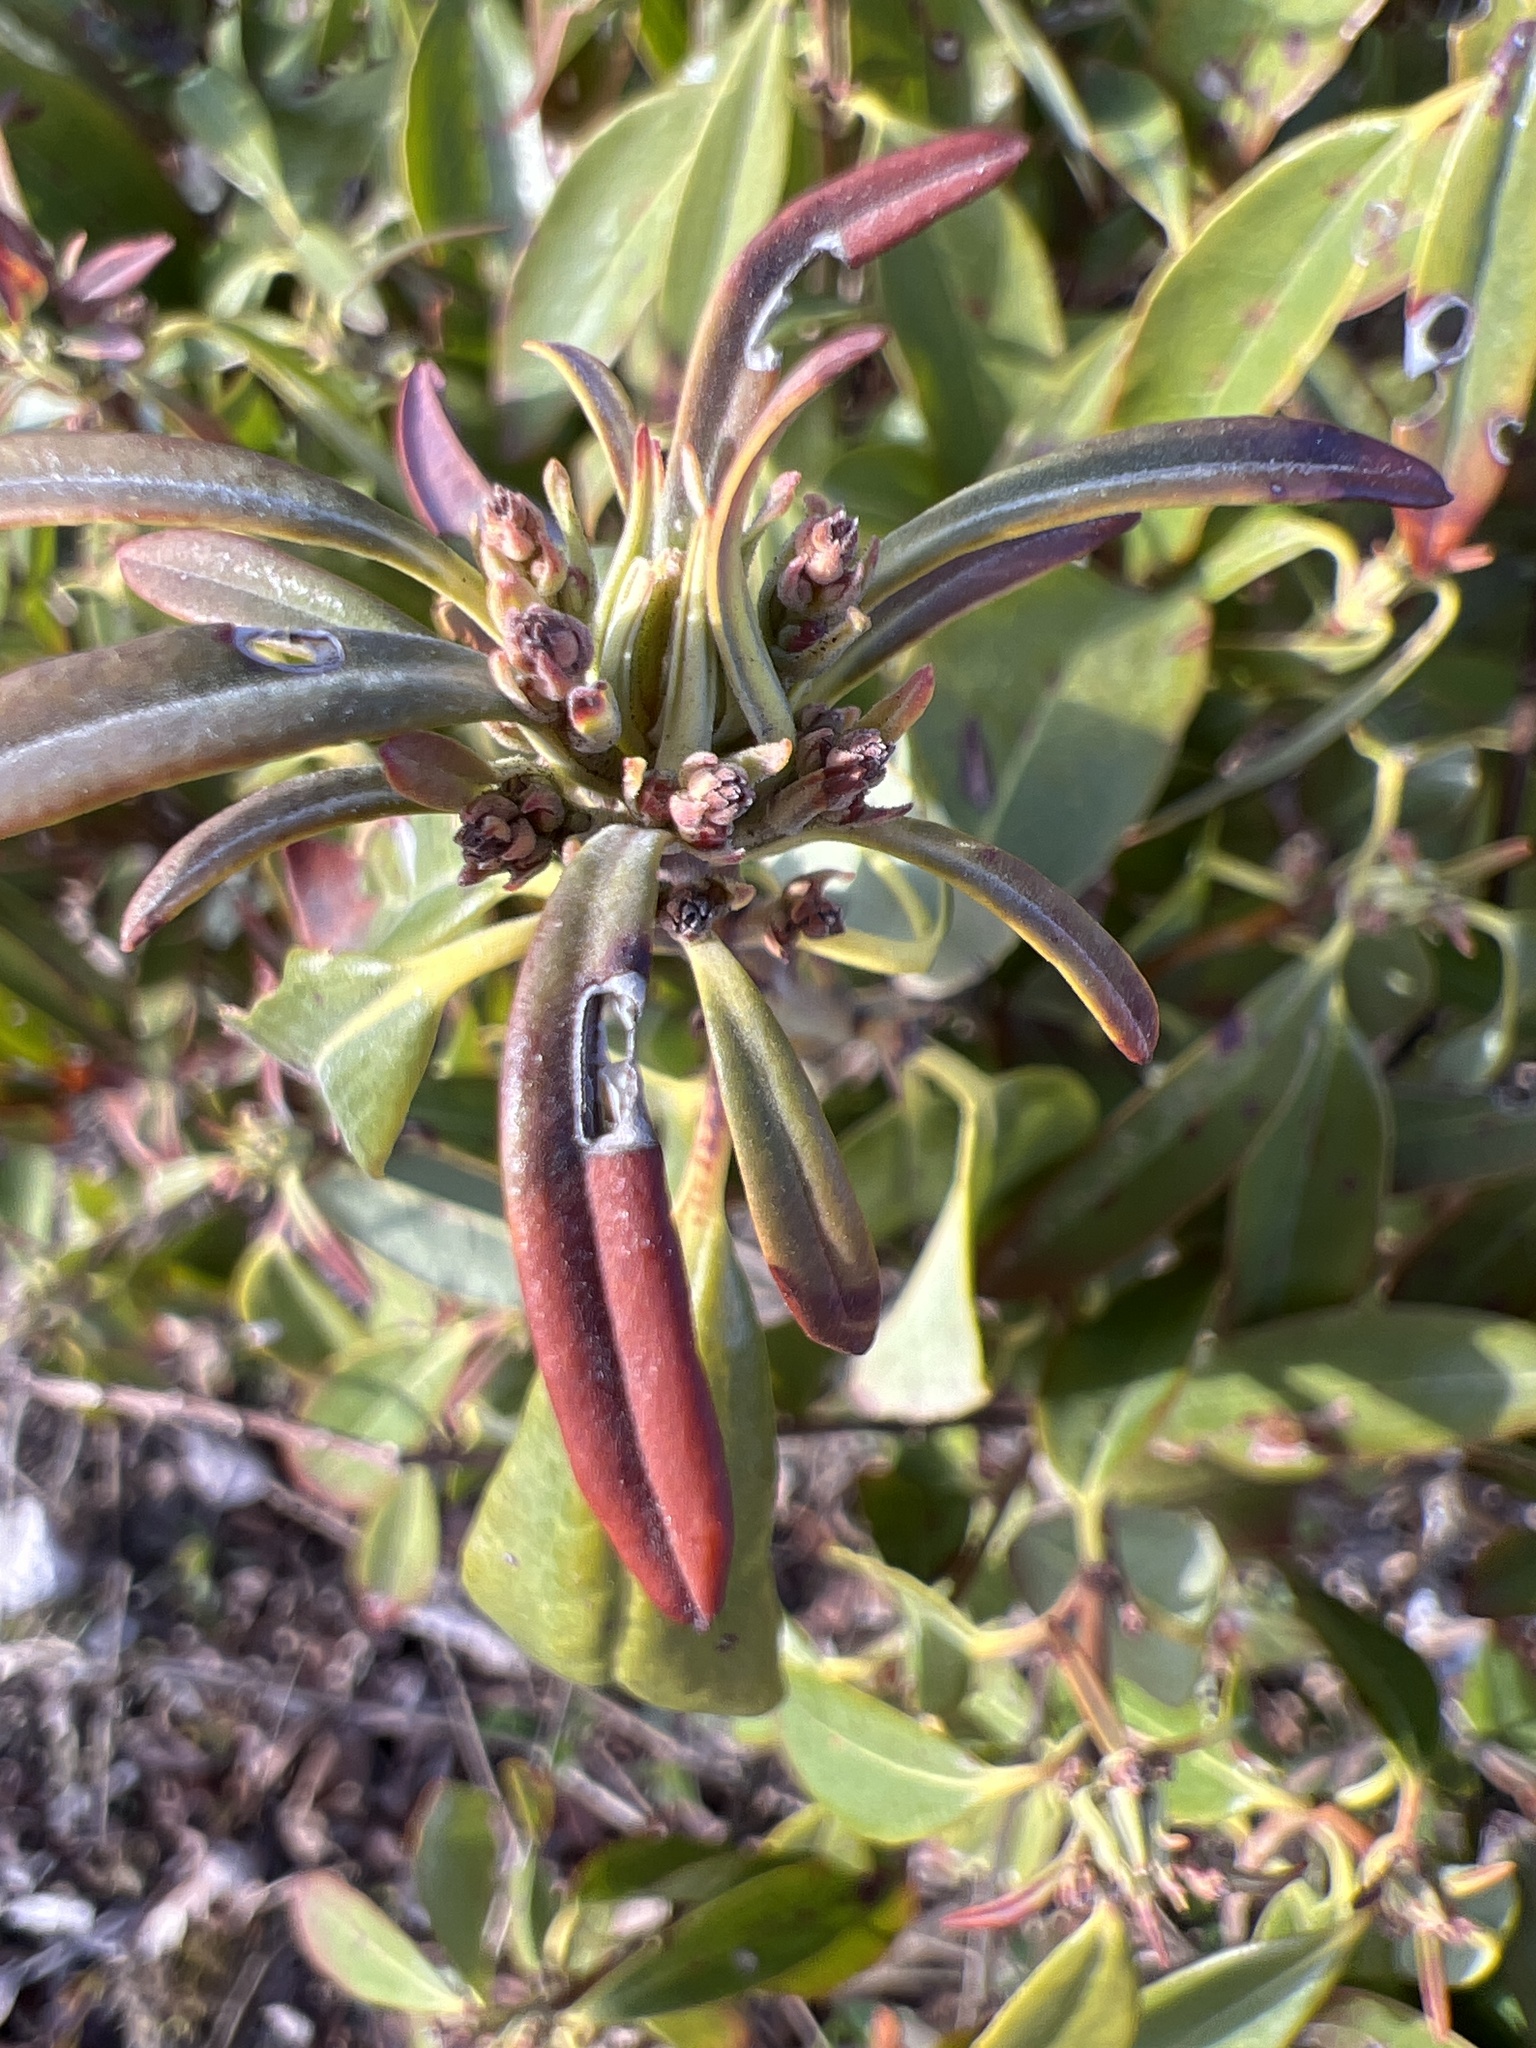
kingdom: Plantae
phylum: Tracheophyta
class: Magnoliopsida
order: Ericales
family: Ericaceae
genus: Kalmia
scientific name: Kalmia angustifolia
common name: Sheep-laurel
